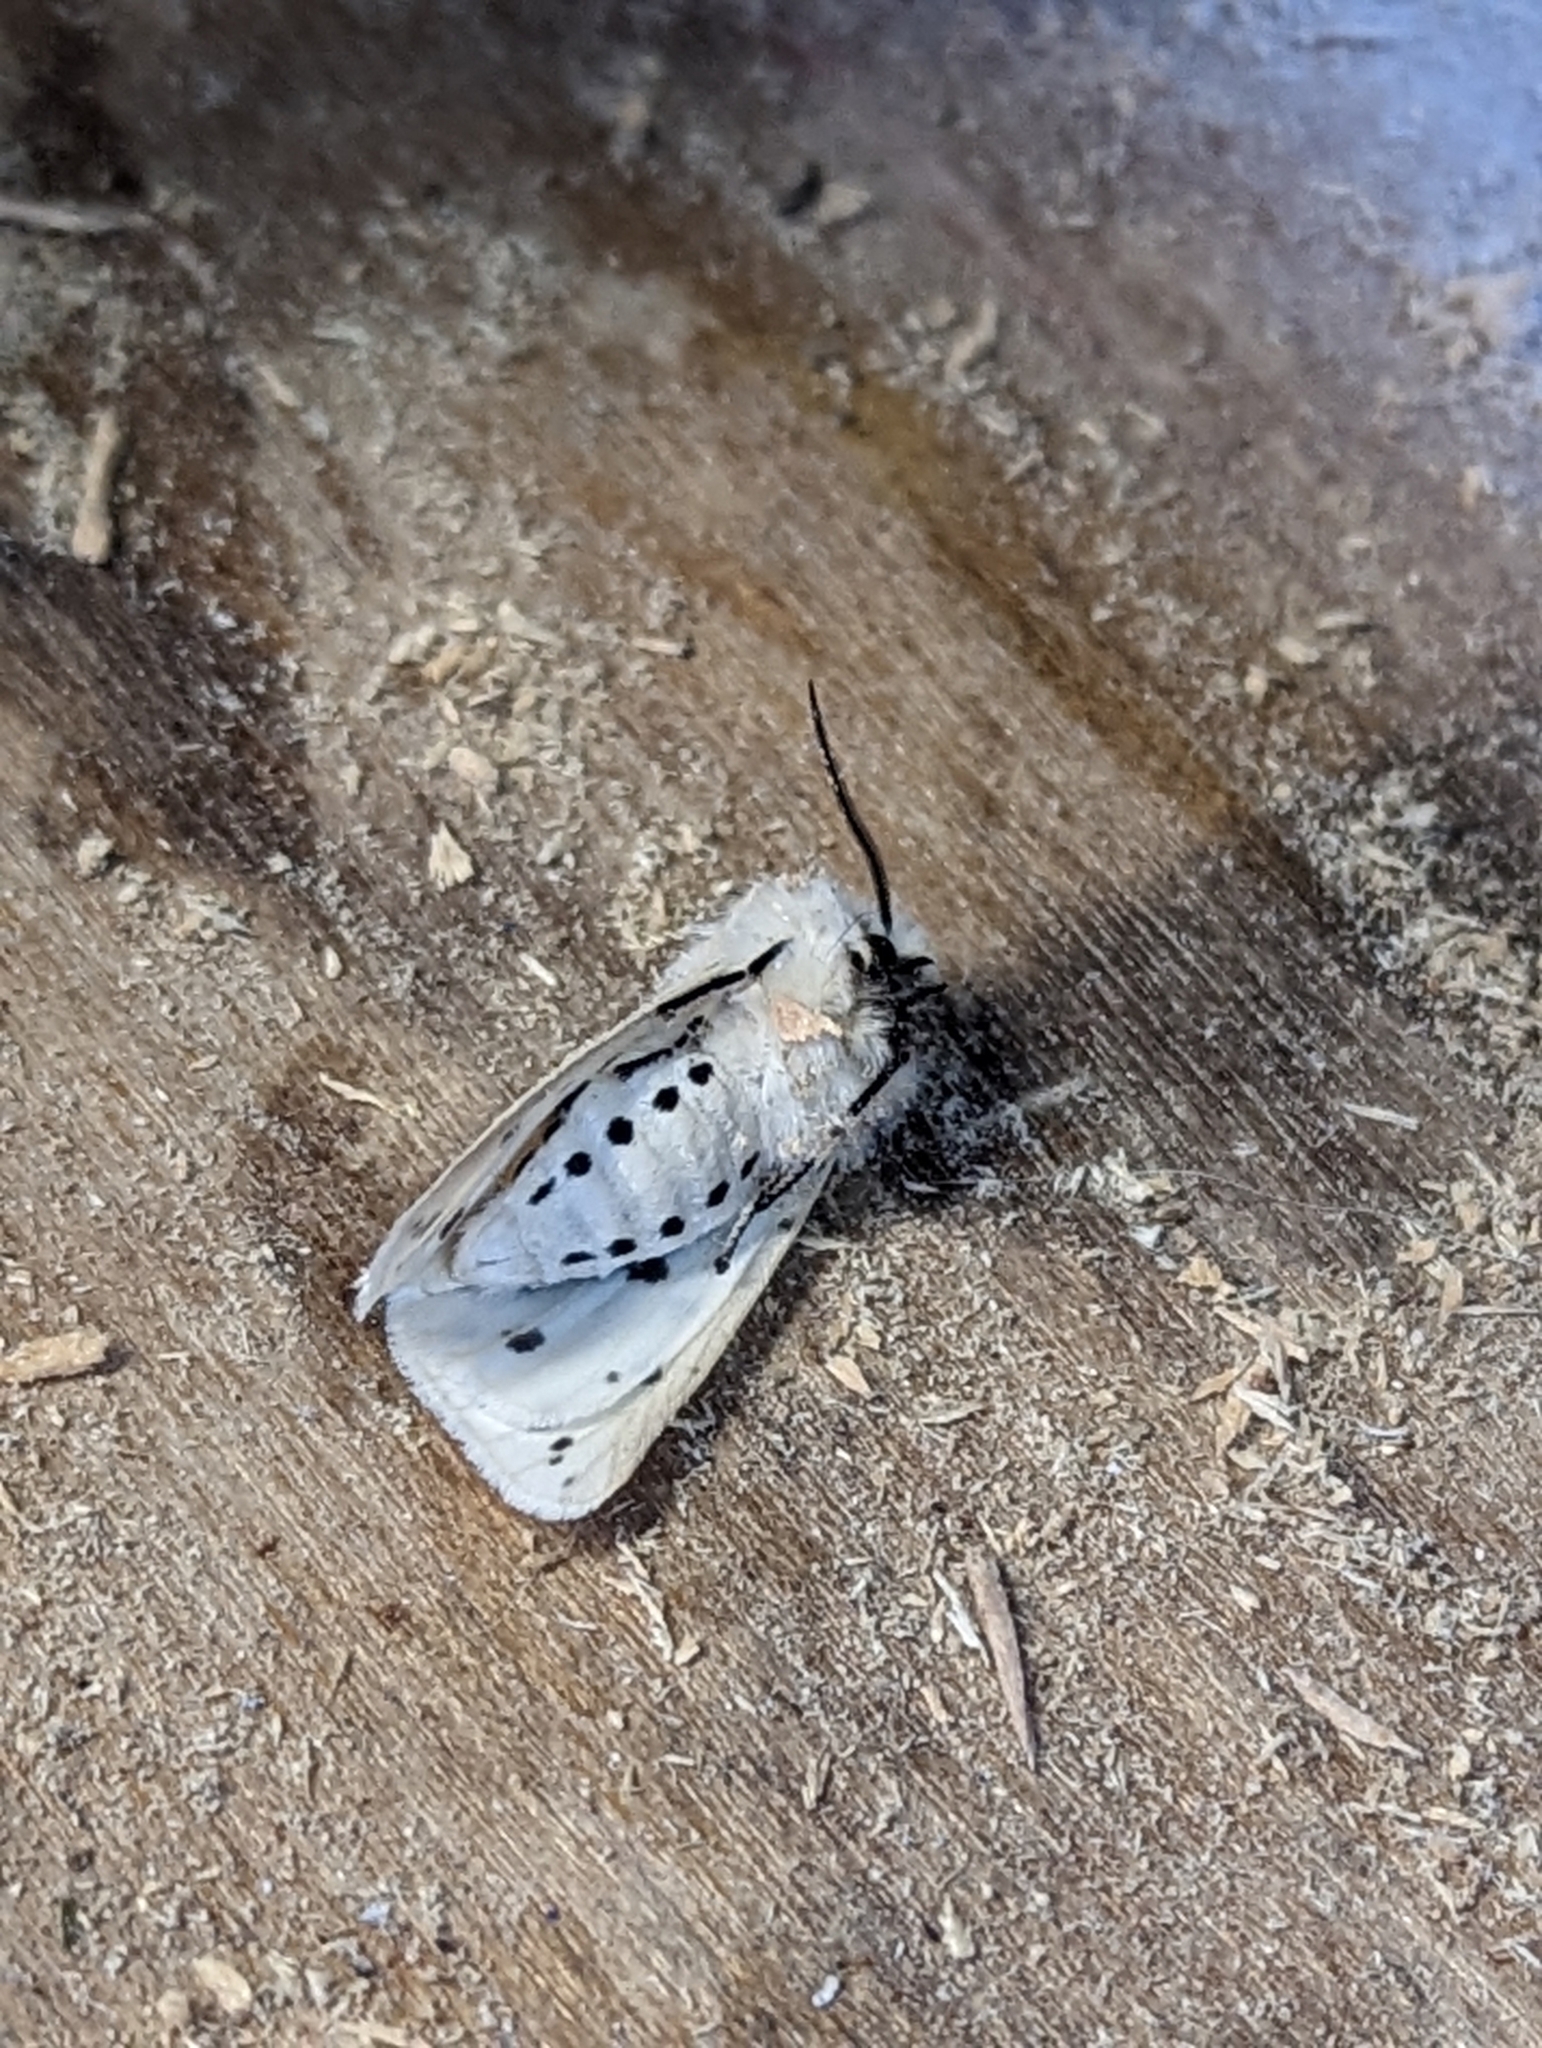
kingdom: Animalia
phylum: Arthropoda
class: Insecta
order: Lepidoptera
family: Erebidae
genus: Spilosoma
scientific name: Spilosoma lubricipeda
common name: White ermine
